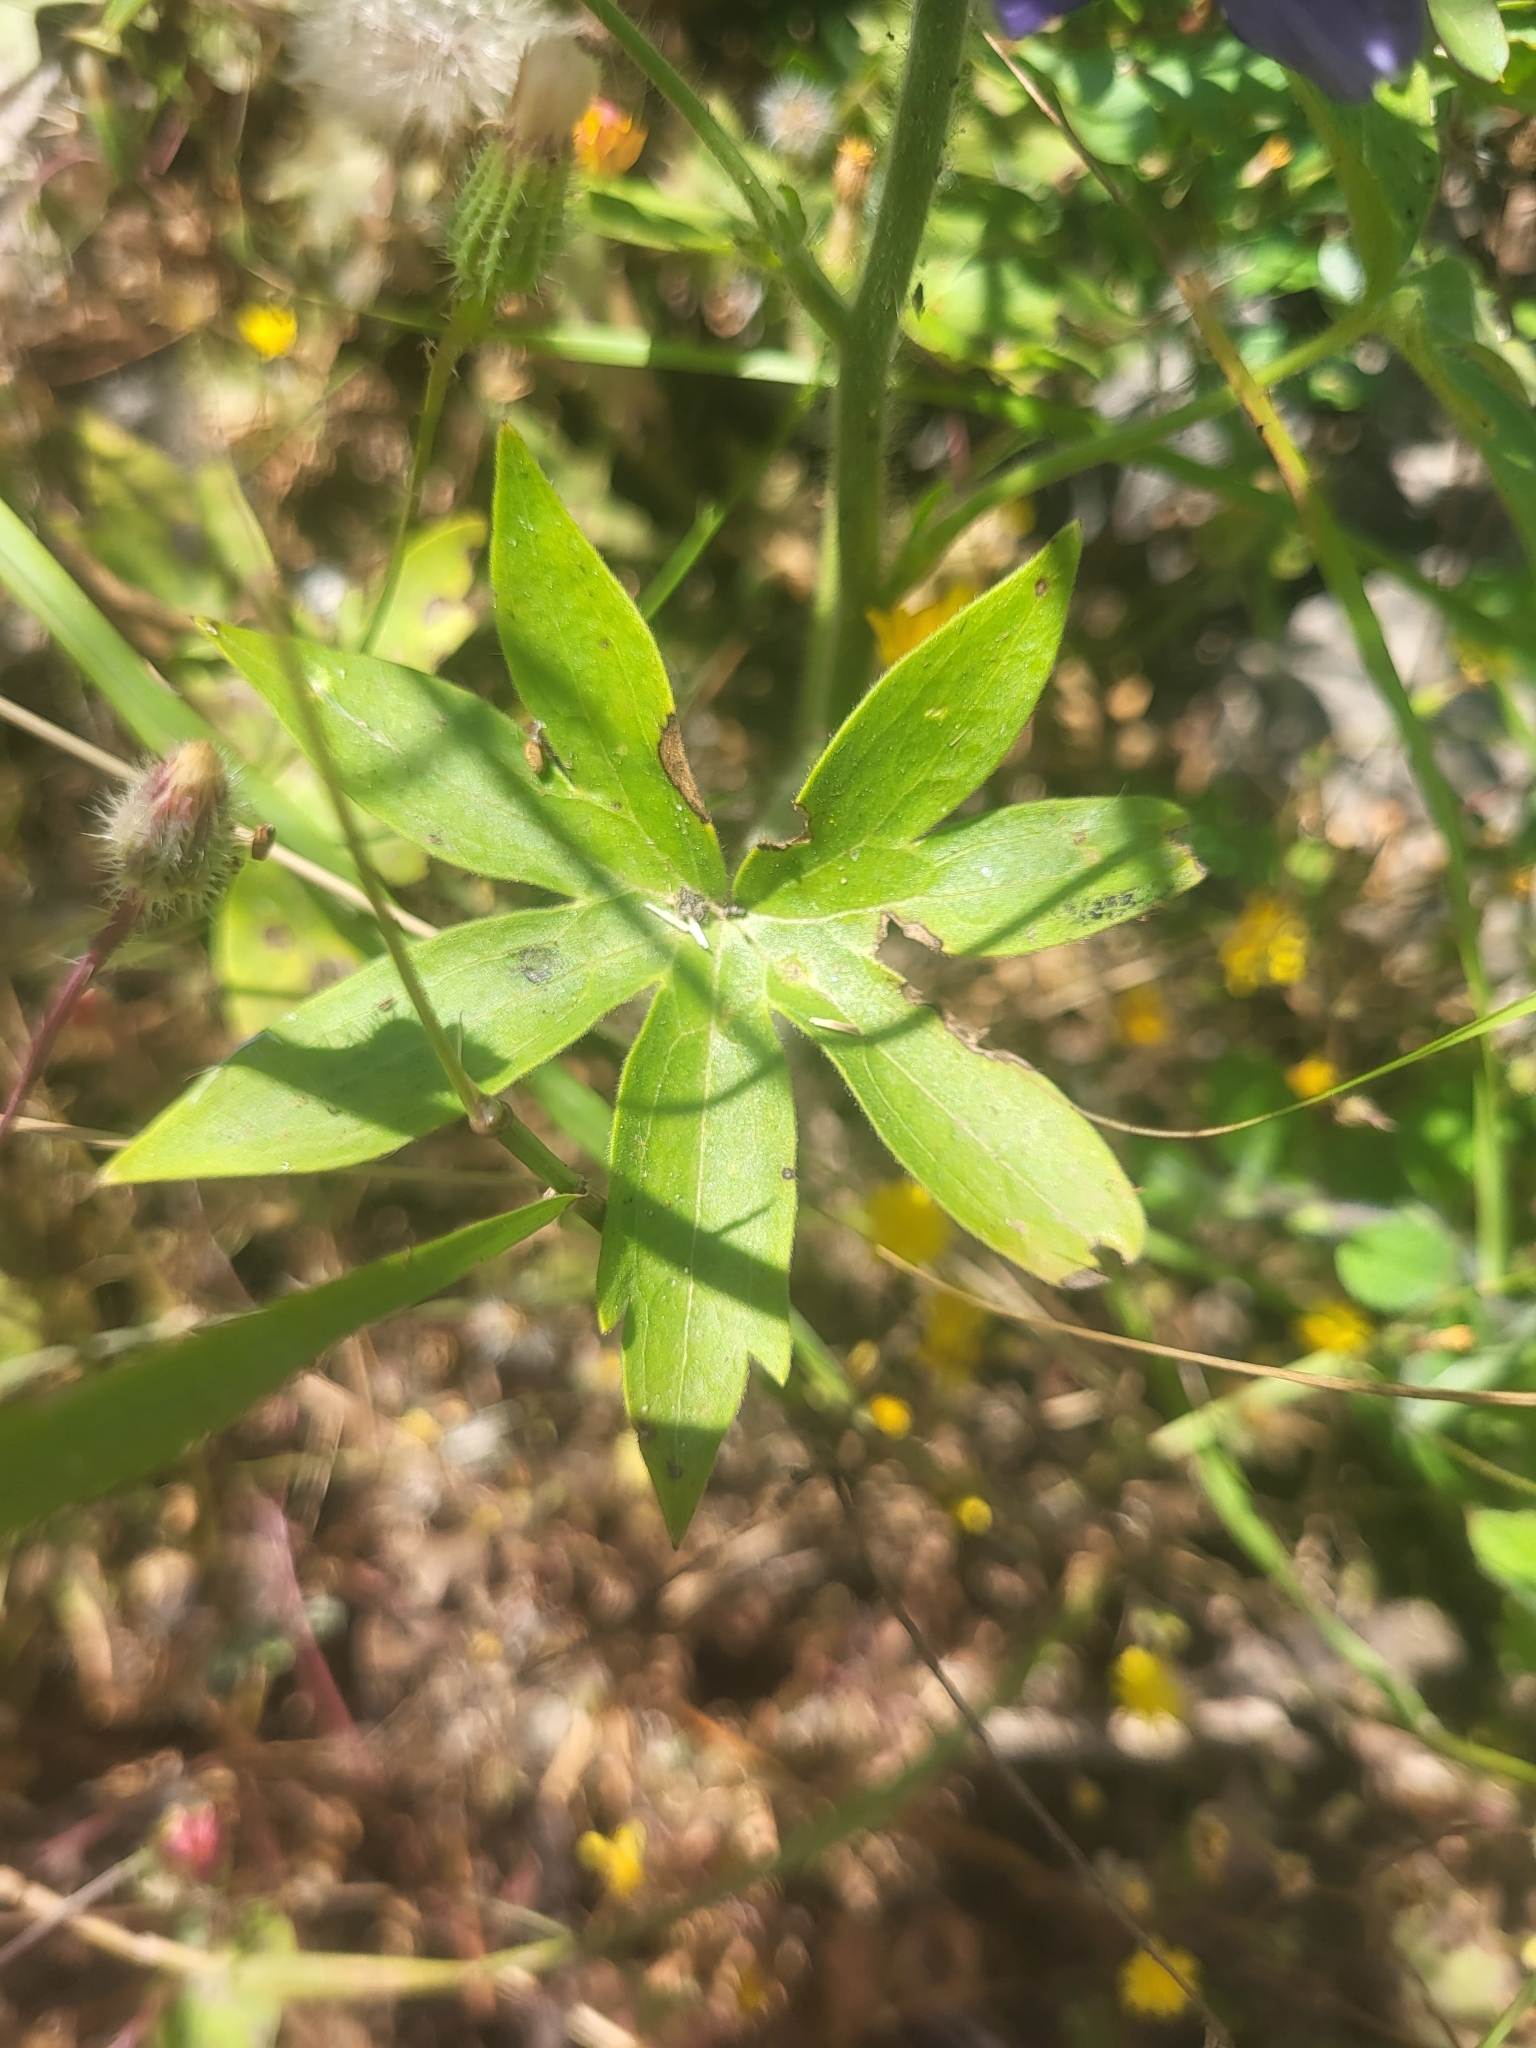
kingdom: Plantae
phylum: Tracheophyta
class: Magnoliopsida
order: Ranunculales
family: Ranunculaceae
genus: Staphisagria
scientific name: Staphisagria macrosperma
